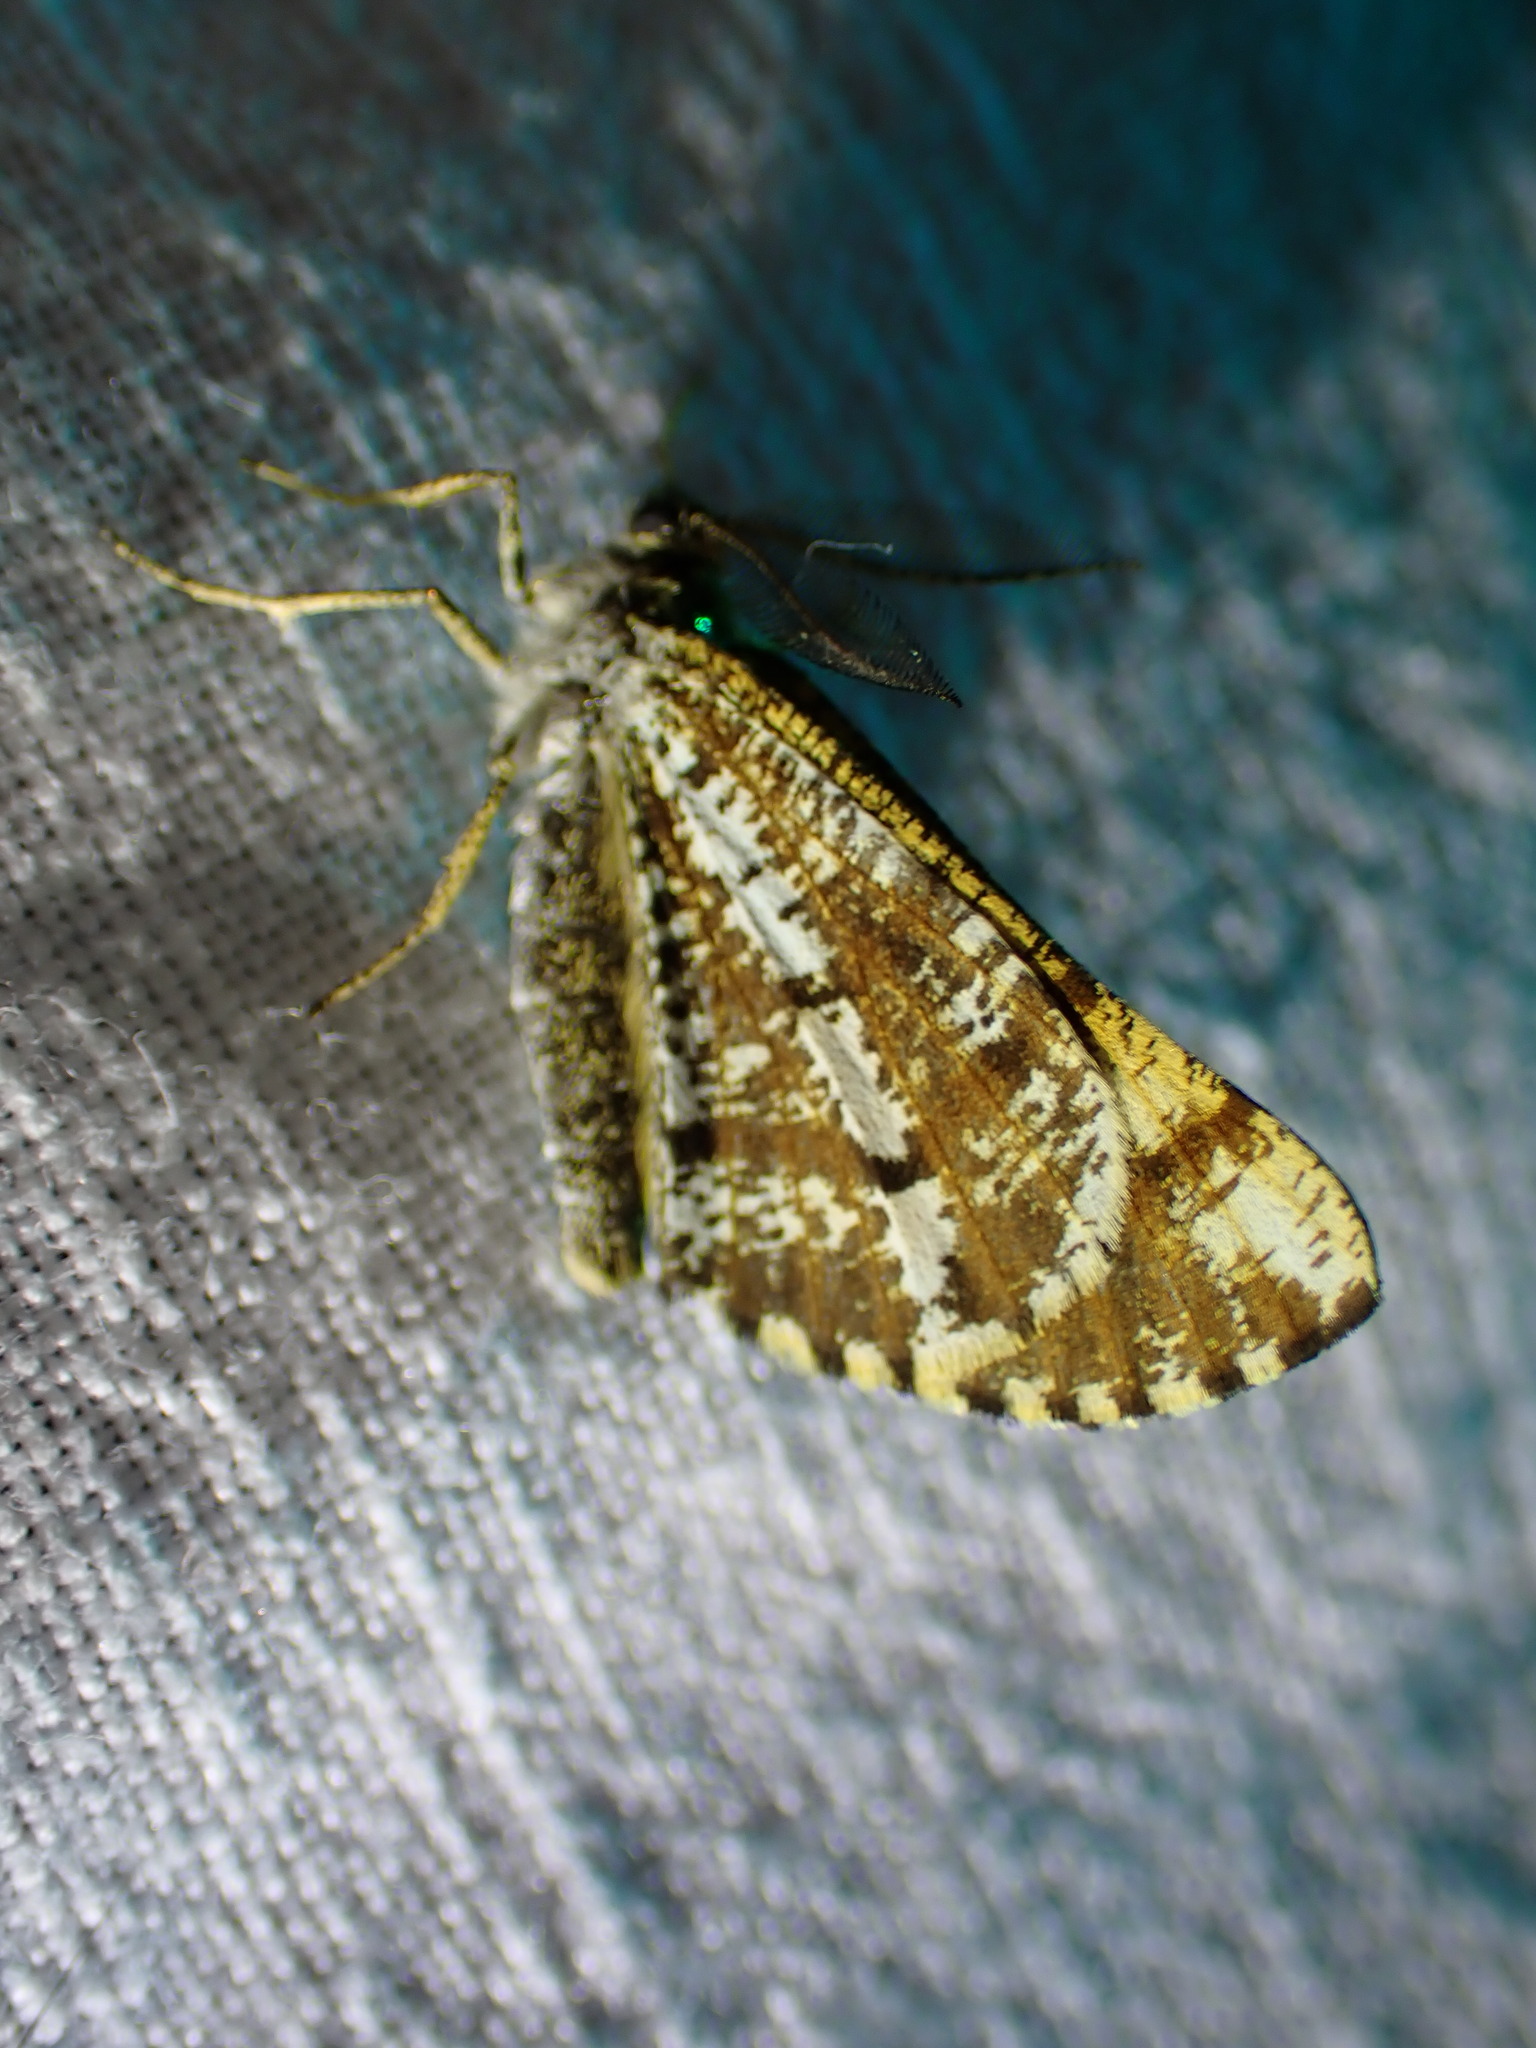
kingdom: Animalia
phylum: Arthropoda
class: Insecta
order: Lepidoptera
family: Geometridae
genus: Bupalus
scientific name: Bupalus piniaria
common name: Bordered white
